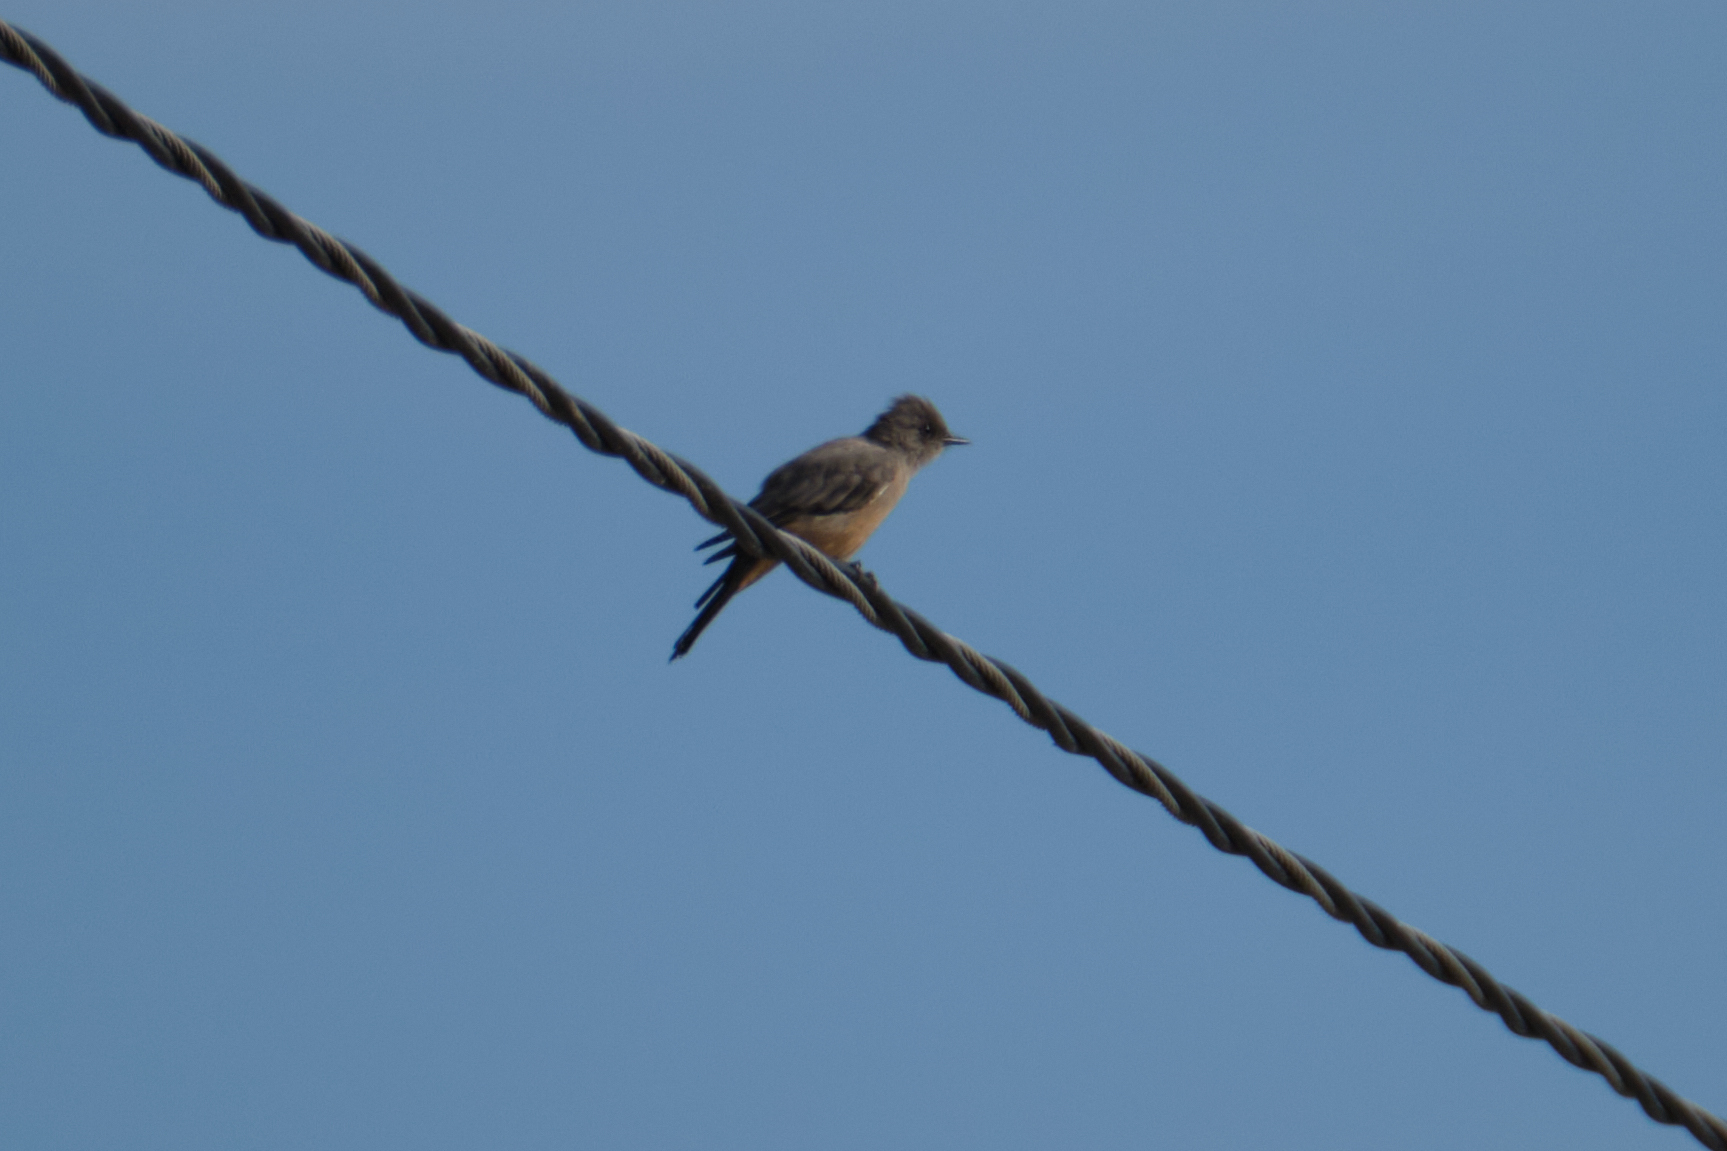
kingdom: Animalia
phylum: Chordata
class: Aves
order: Passeriformes
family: Tyrannidae
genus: Sayornis
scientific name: Sayornis saya
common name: Say's phoebe
